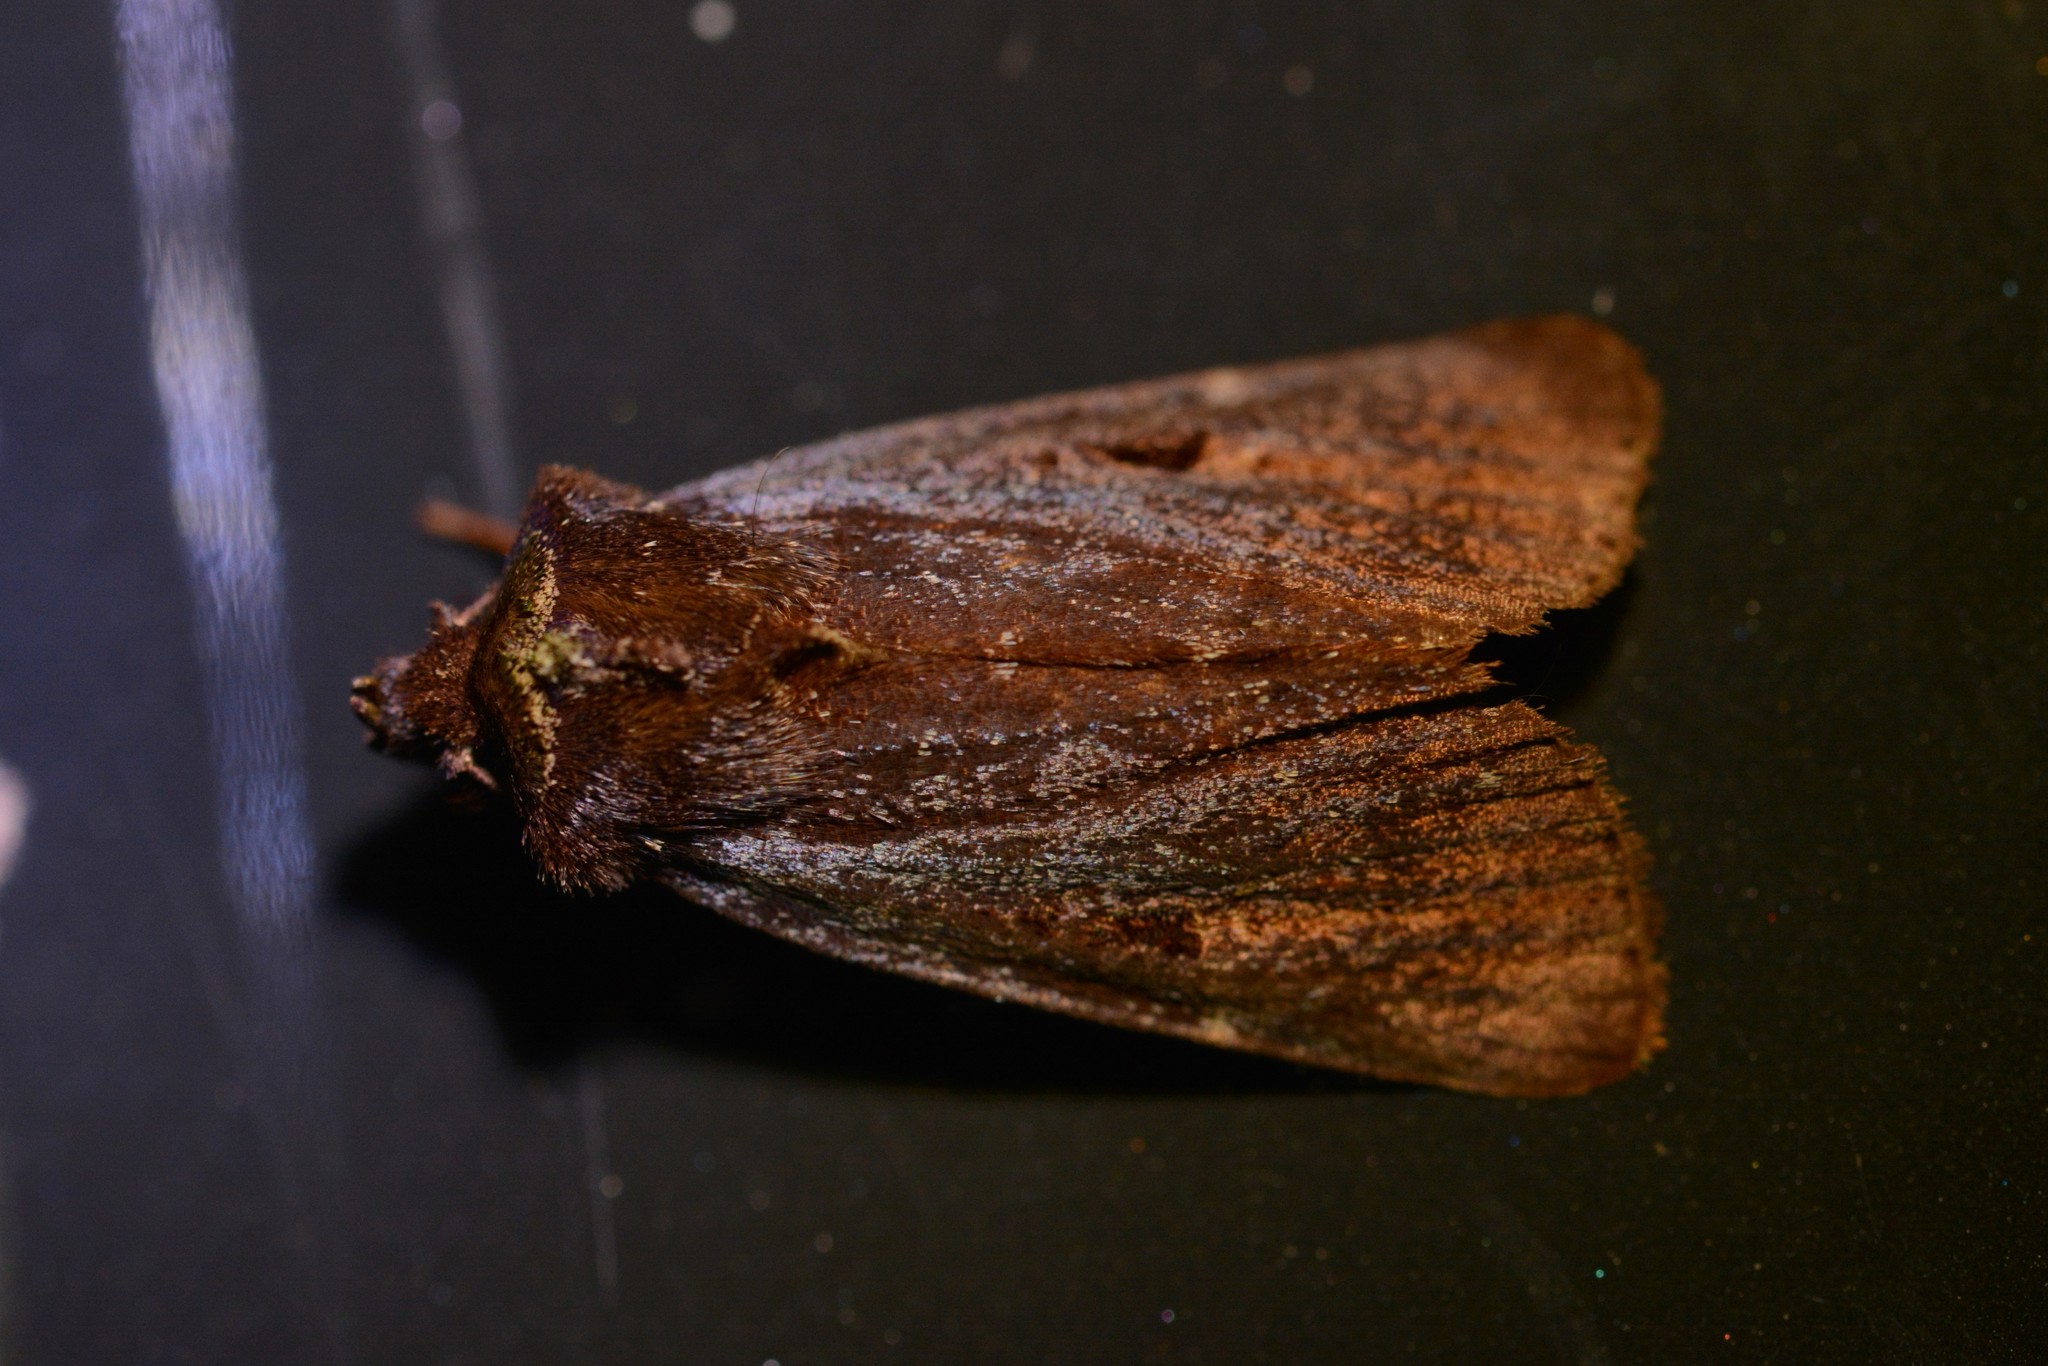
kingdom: Animalia
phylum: Arthropoda
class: Insecta
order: Lepidoptera
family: Noctuidae
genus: Austramathes
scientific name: Austramathes purpurea
